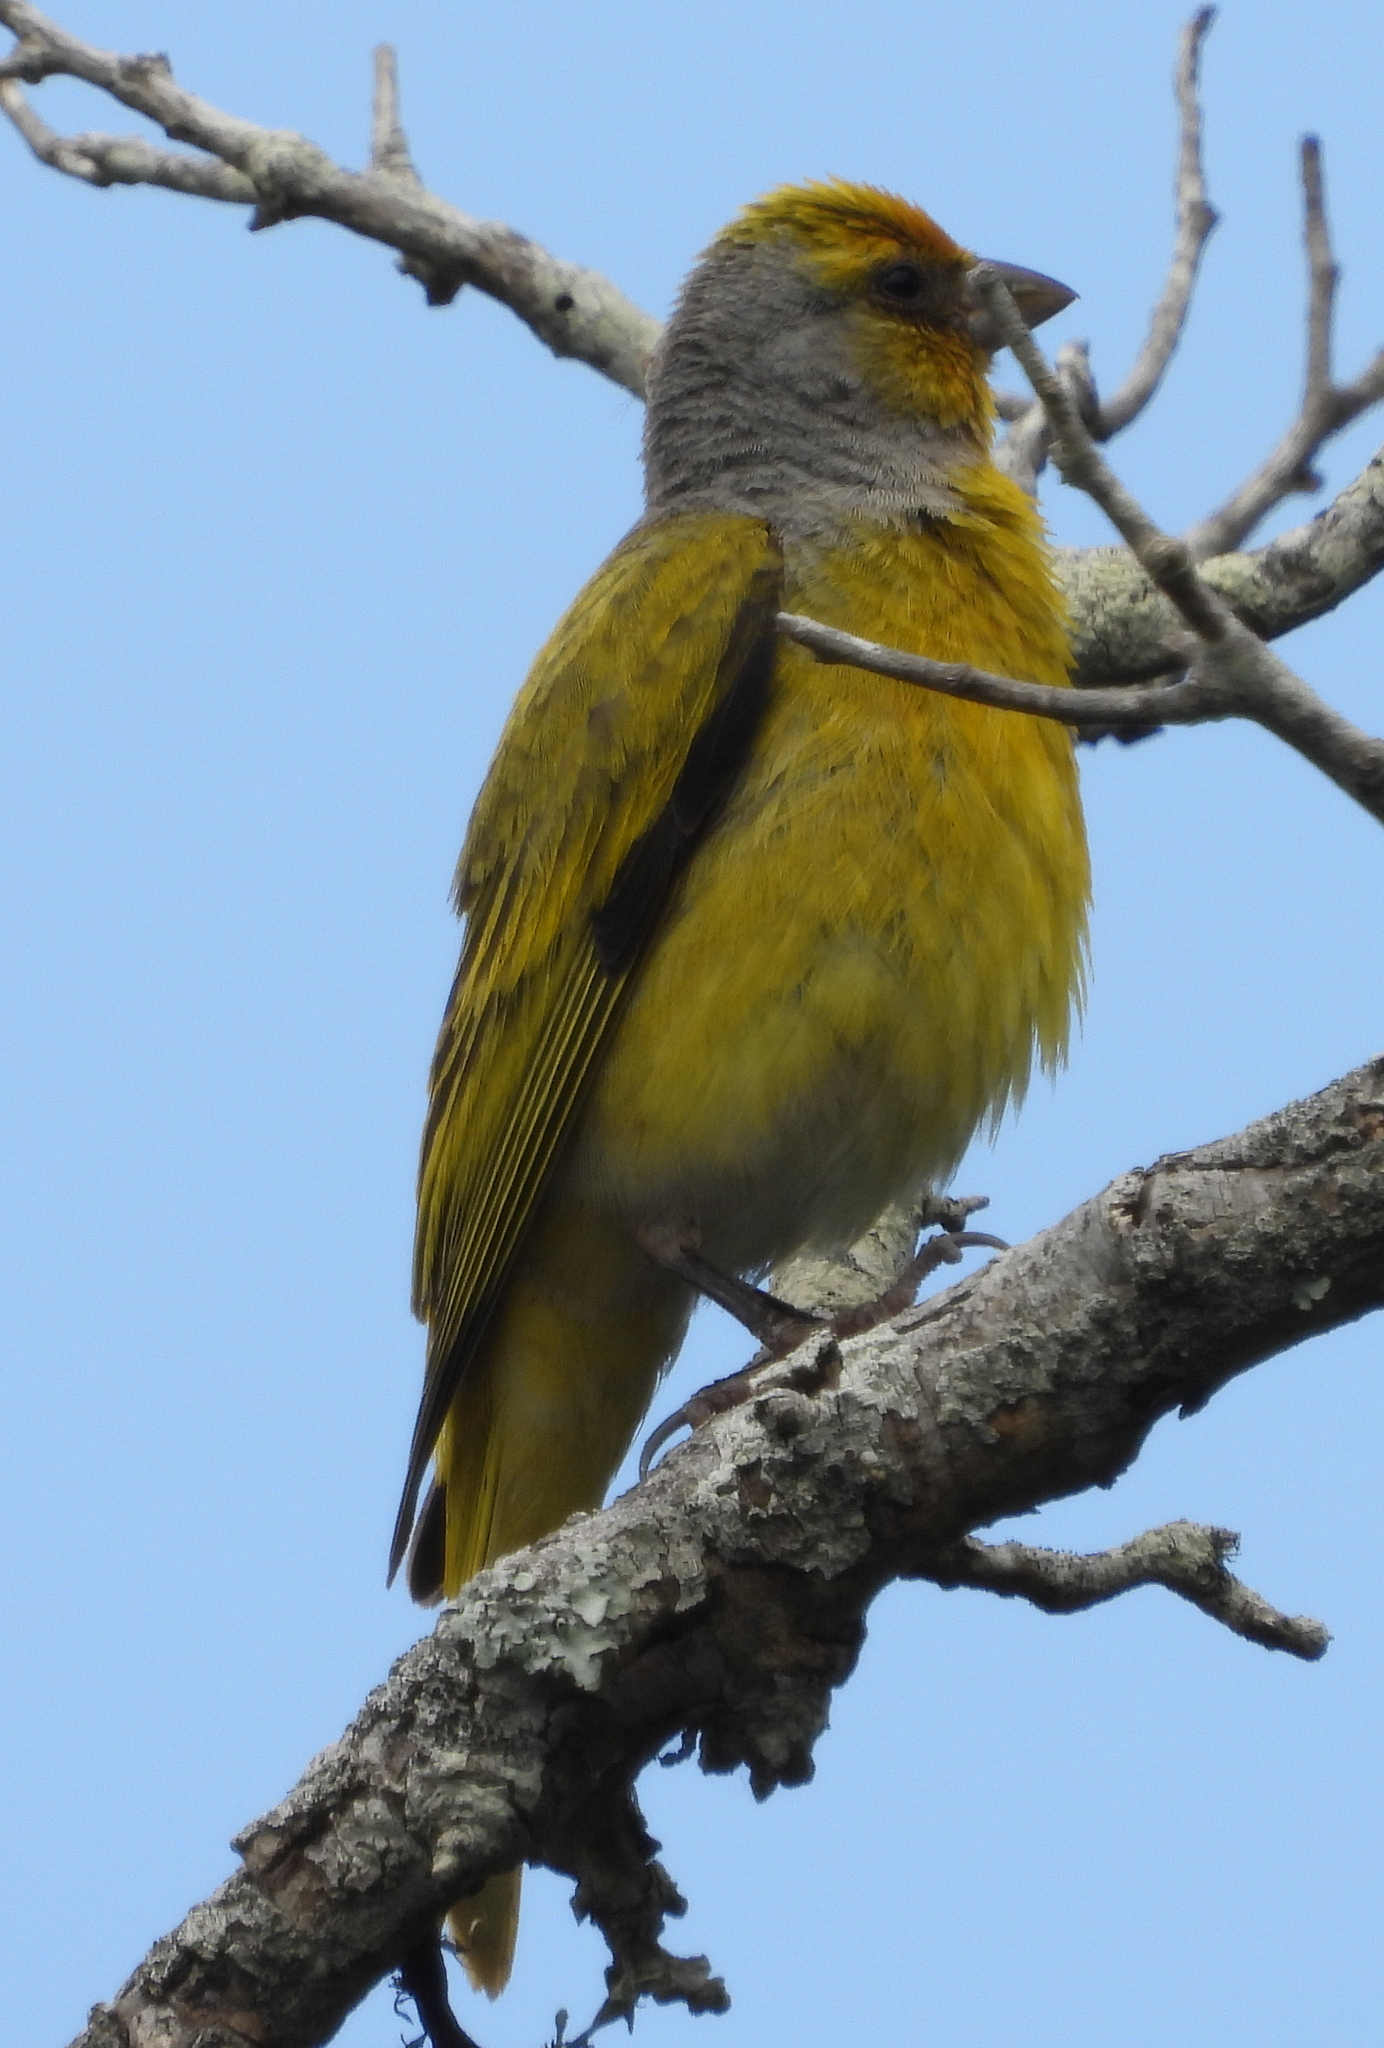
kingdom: Animalia
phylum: Chordata
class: Aves
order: Passeriformes
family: Fringillidae
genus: Serinus
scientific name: Serinus canicollis
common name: Cape canary
